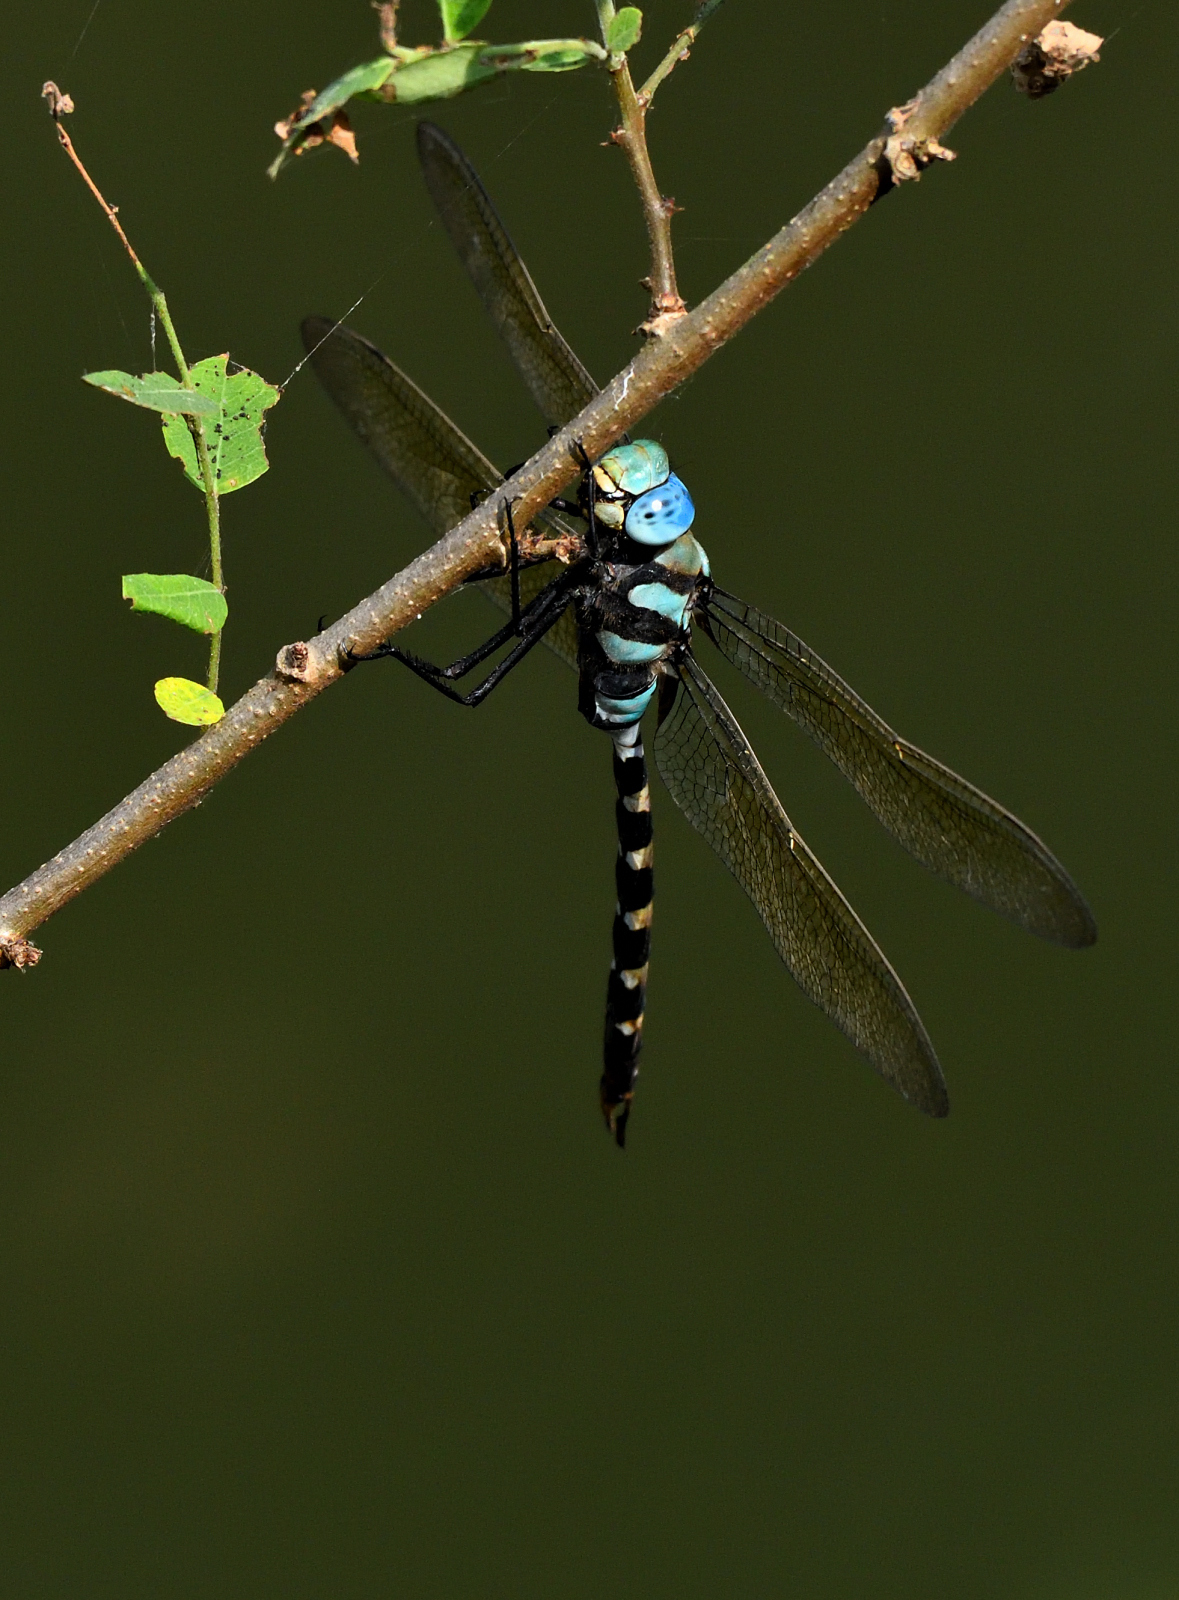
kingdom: Animalia
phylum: Arthropoda
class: Insecta
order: Odonata
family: Aeshnidae
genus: Anax
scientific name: Anax immaculifrons
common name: Magnificent emperor
